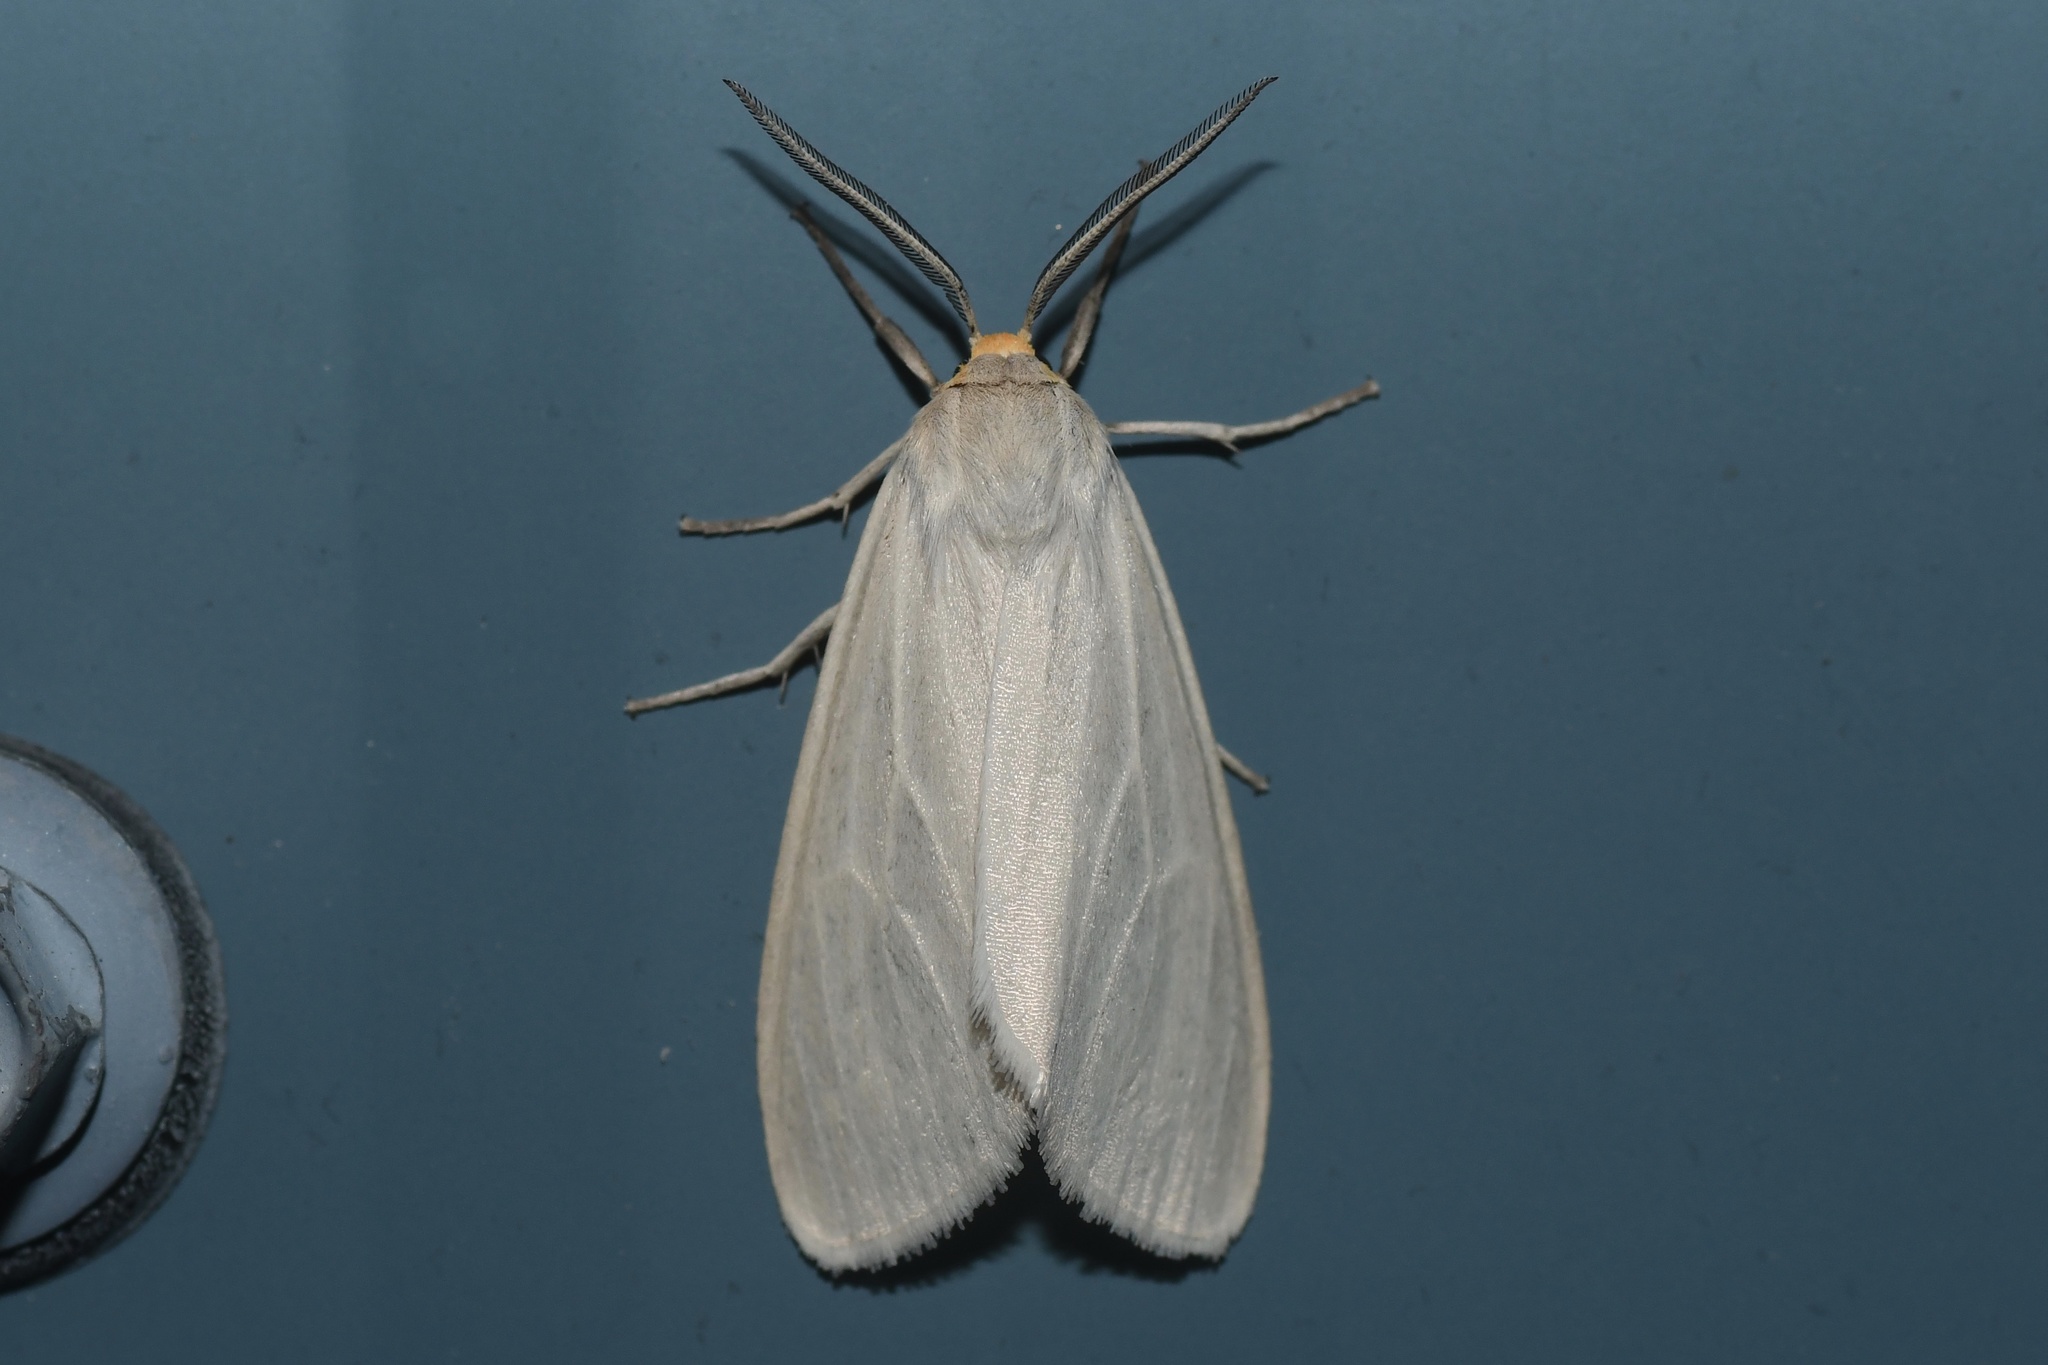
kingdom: Animalia
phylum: Arthropoda
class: Insecta
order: Lepidoptera
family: Erebidae
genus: Cycnia
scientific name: Cycnia oregonensis
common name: Oregon cycnia moth
